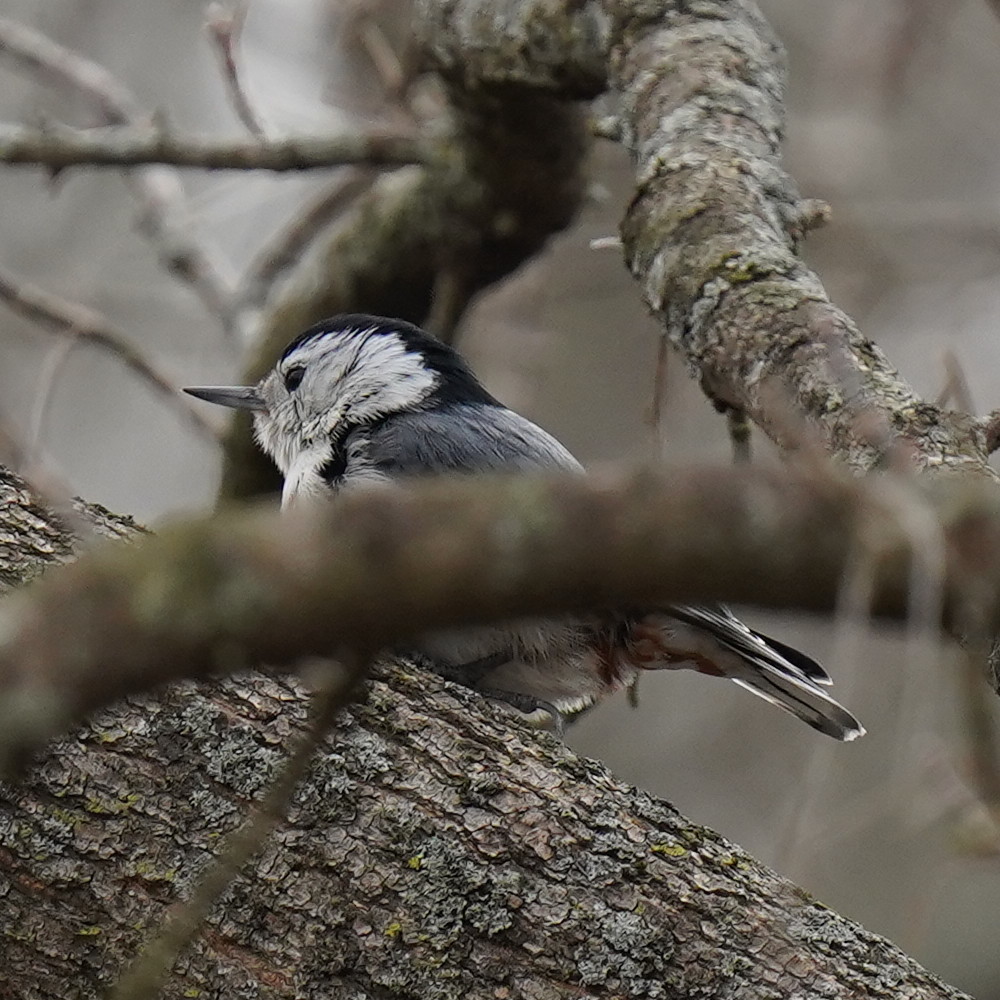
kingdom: Animalia
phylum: Chordata
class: Aves
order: Passeriformes
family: Sittidae
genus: Sitta
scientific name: Sitta carolinensis
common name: White-breasted nuthatch
